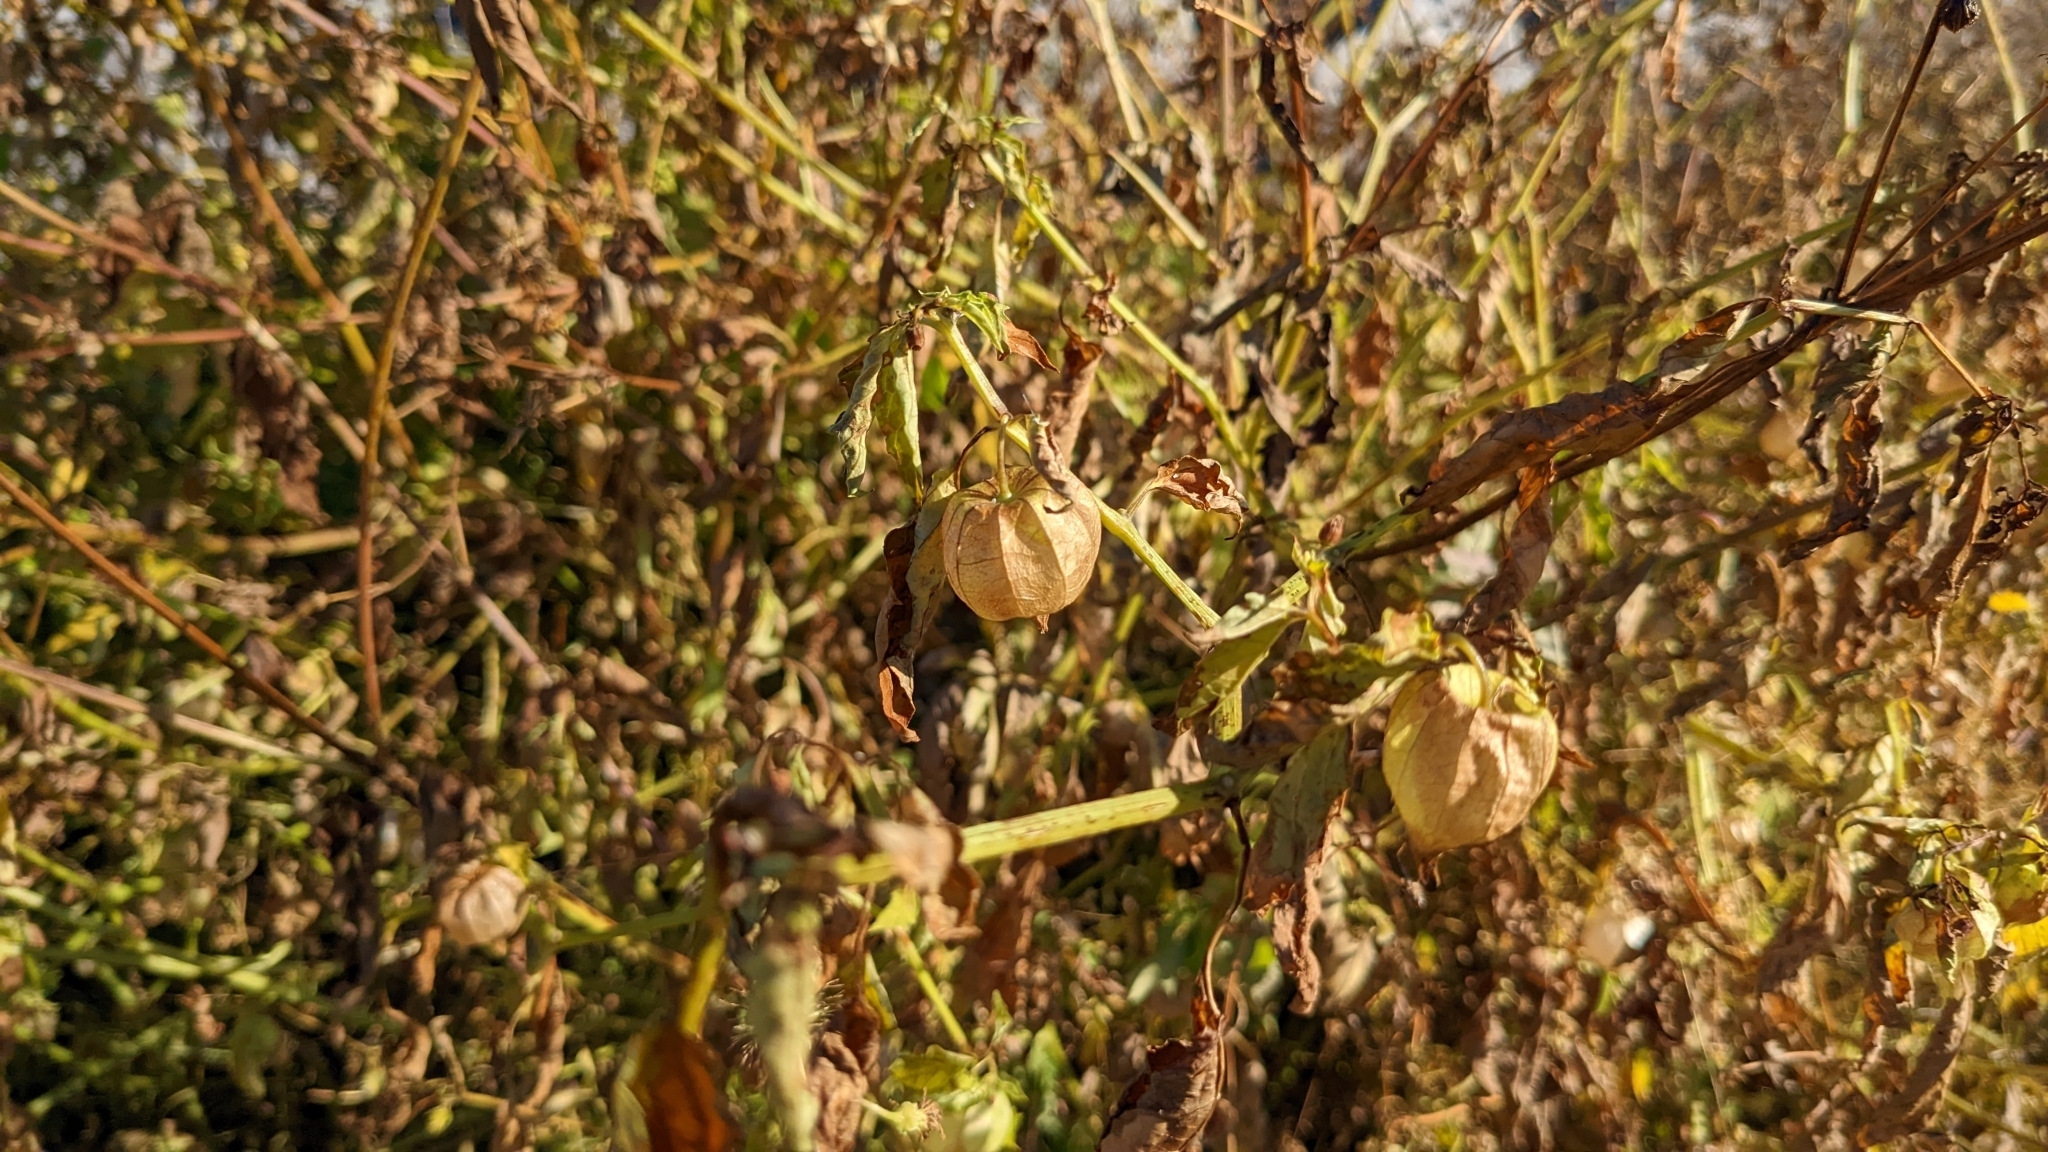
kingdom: Plantae
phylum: Tracheophyta
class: Magnoliopsida
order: Solanales
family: Solanaceae
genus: Physalis
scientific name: Physalis angulata
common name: Angular winter-cherry
